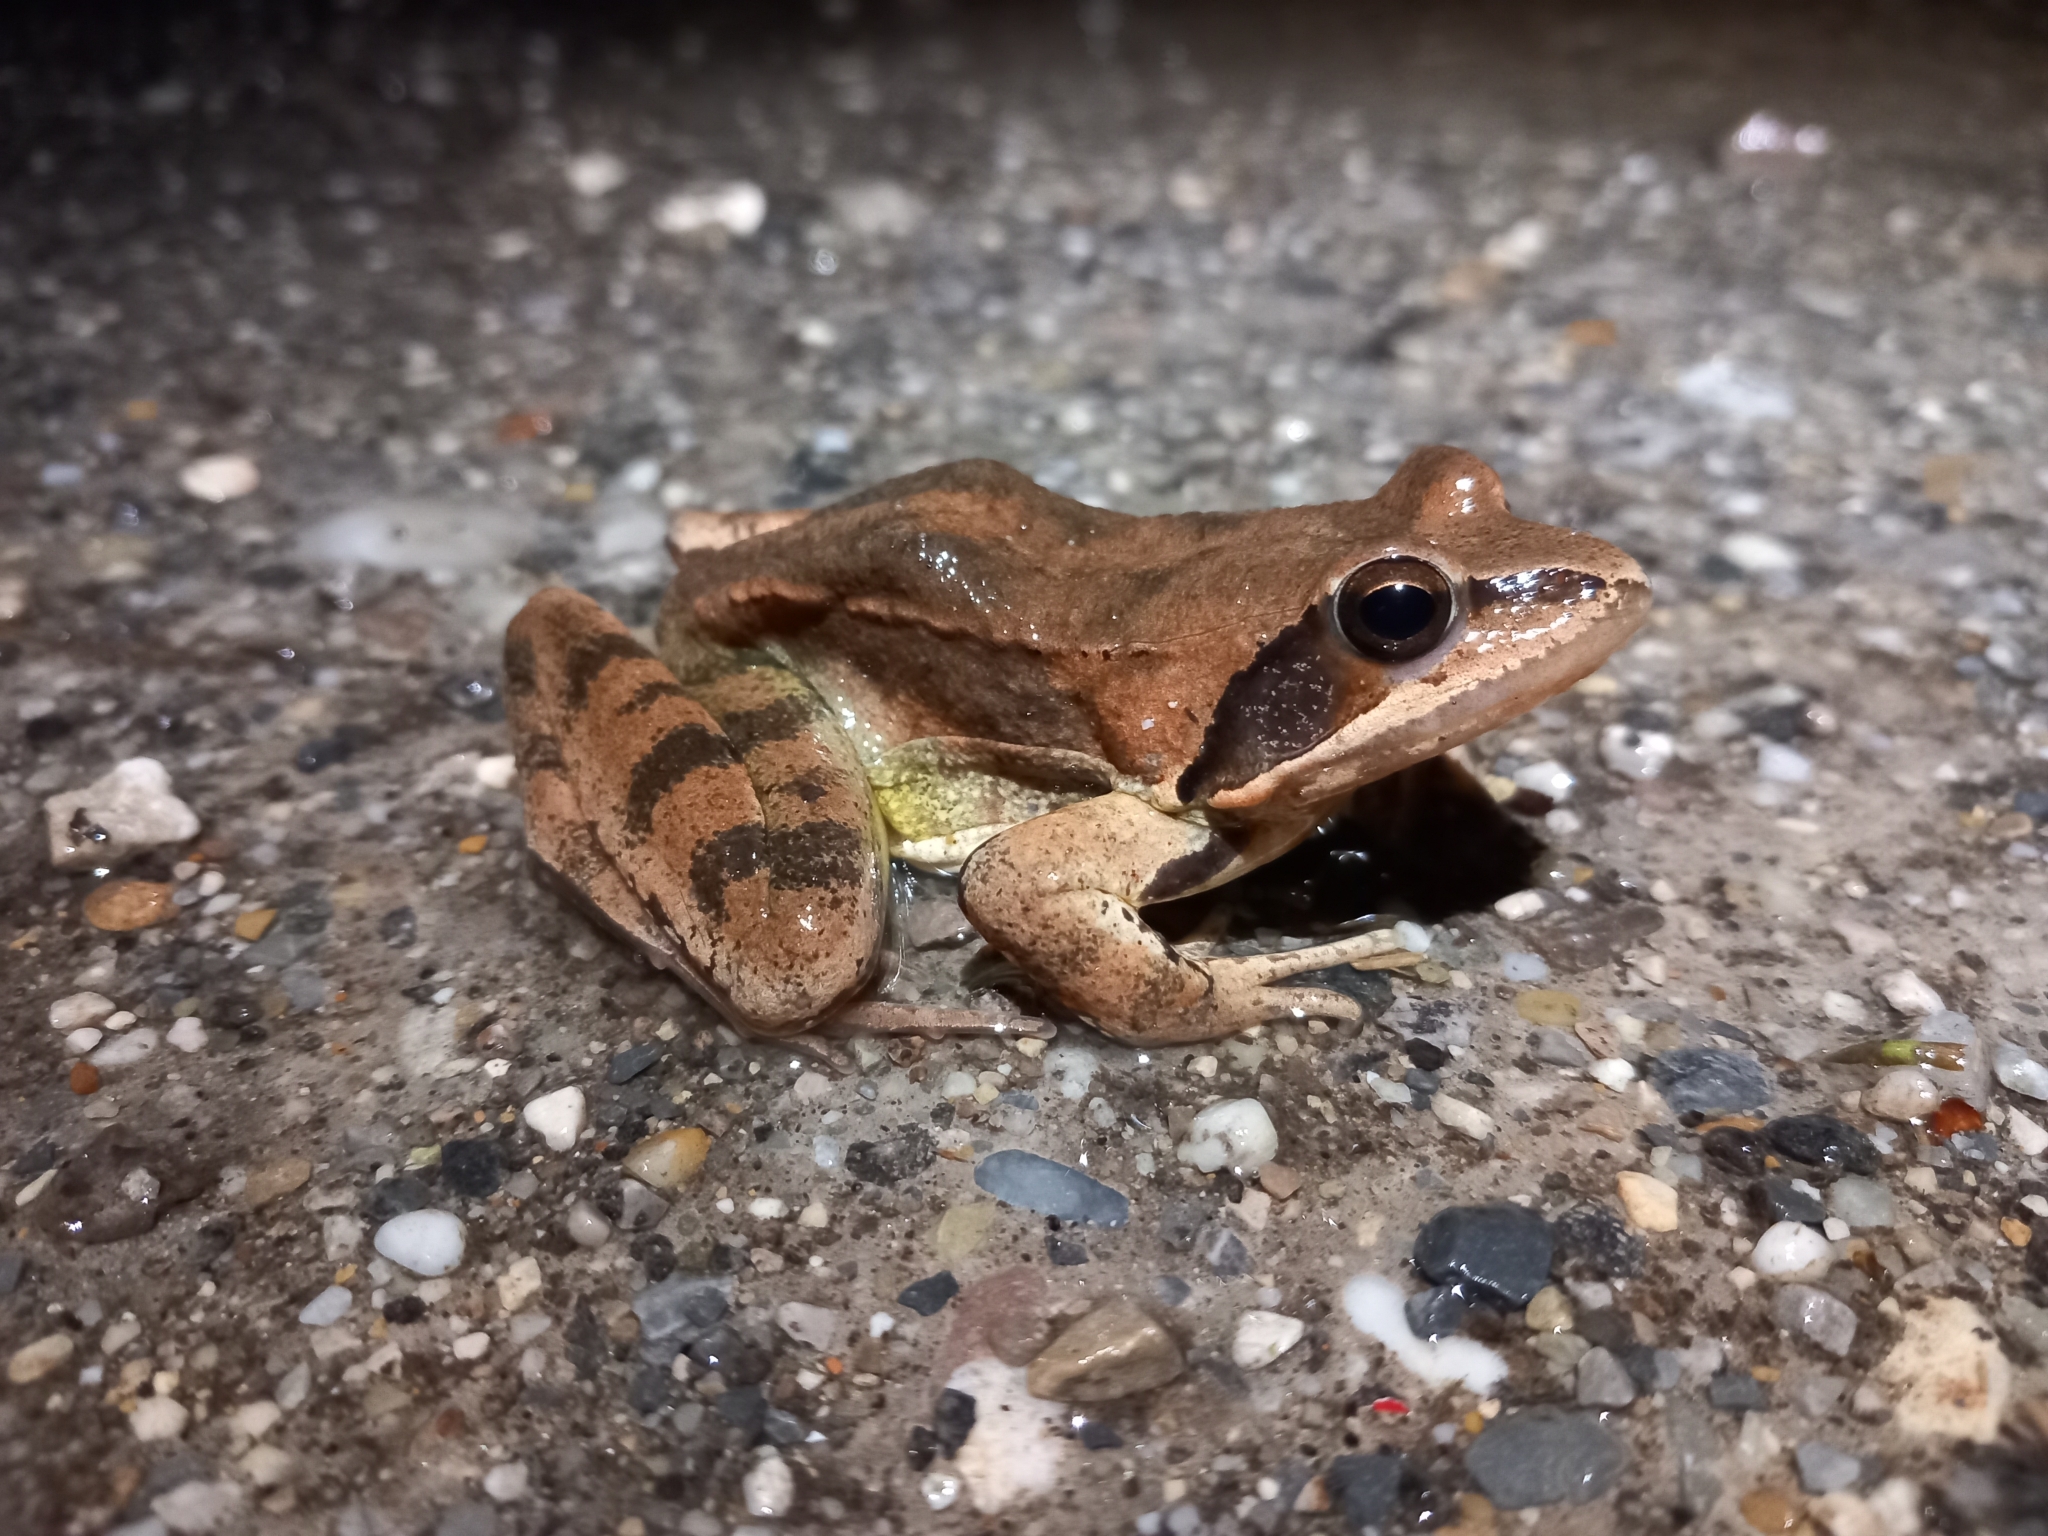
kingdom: Animalia
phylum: Chordata
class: Amphibia
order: Anura
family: Ranidae
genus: Rana
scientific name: Rana dalmatina
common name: Agile frog
